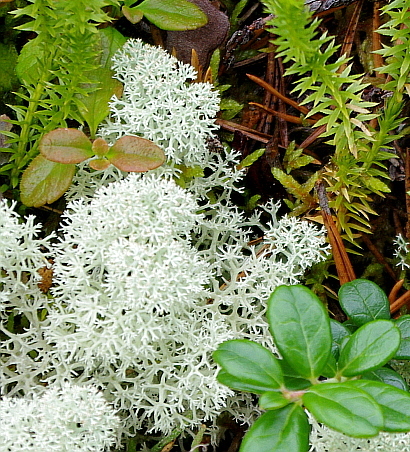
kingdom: Fungi
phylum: Ascomycota
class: Lecanoromycetes
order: Lecanorales
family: Cladoniaceae
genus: Cladonia
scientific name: Cladonia stellaris
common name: Star-tipped reindeer lichen
